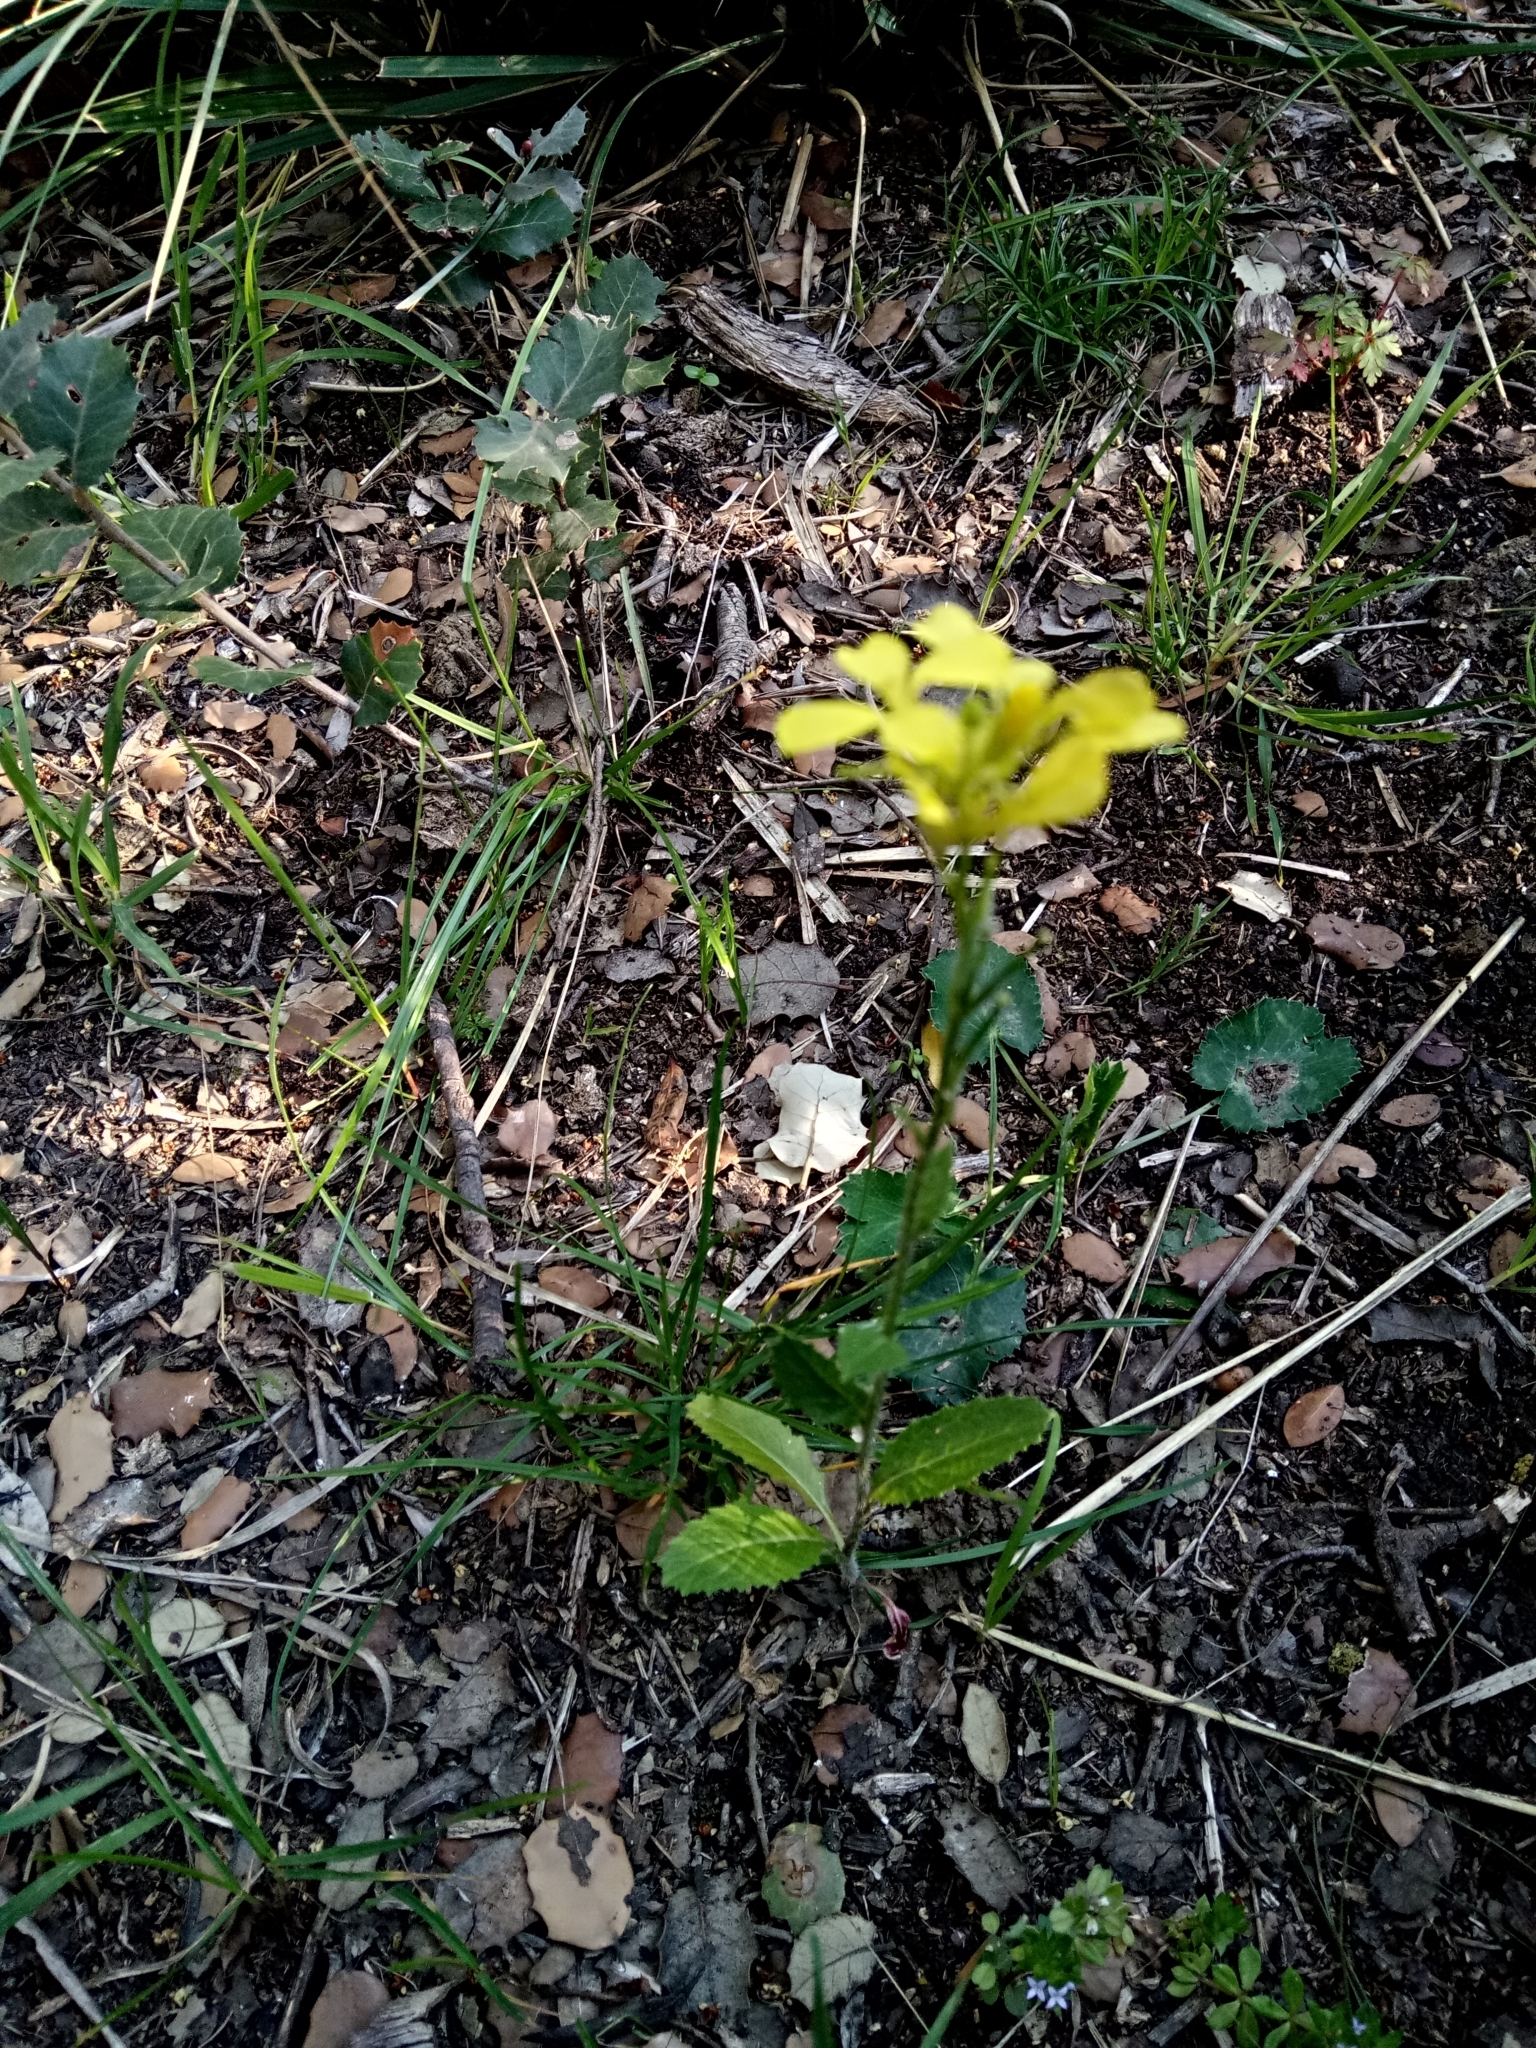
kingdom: Plantae
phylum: Tracheophyta
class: Magnoliopsida
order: Brassicales
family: Brassicaceae
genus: Biscutella
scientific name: Biscutella auriculata
